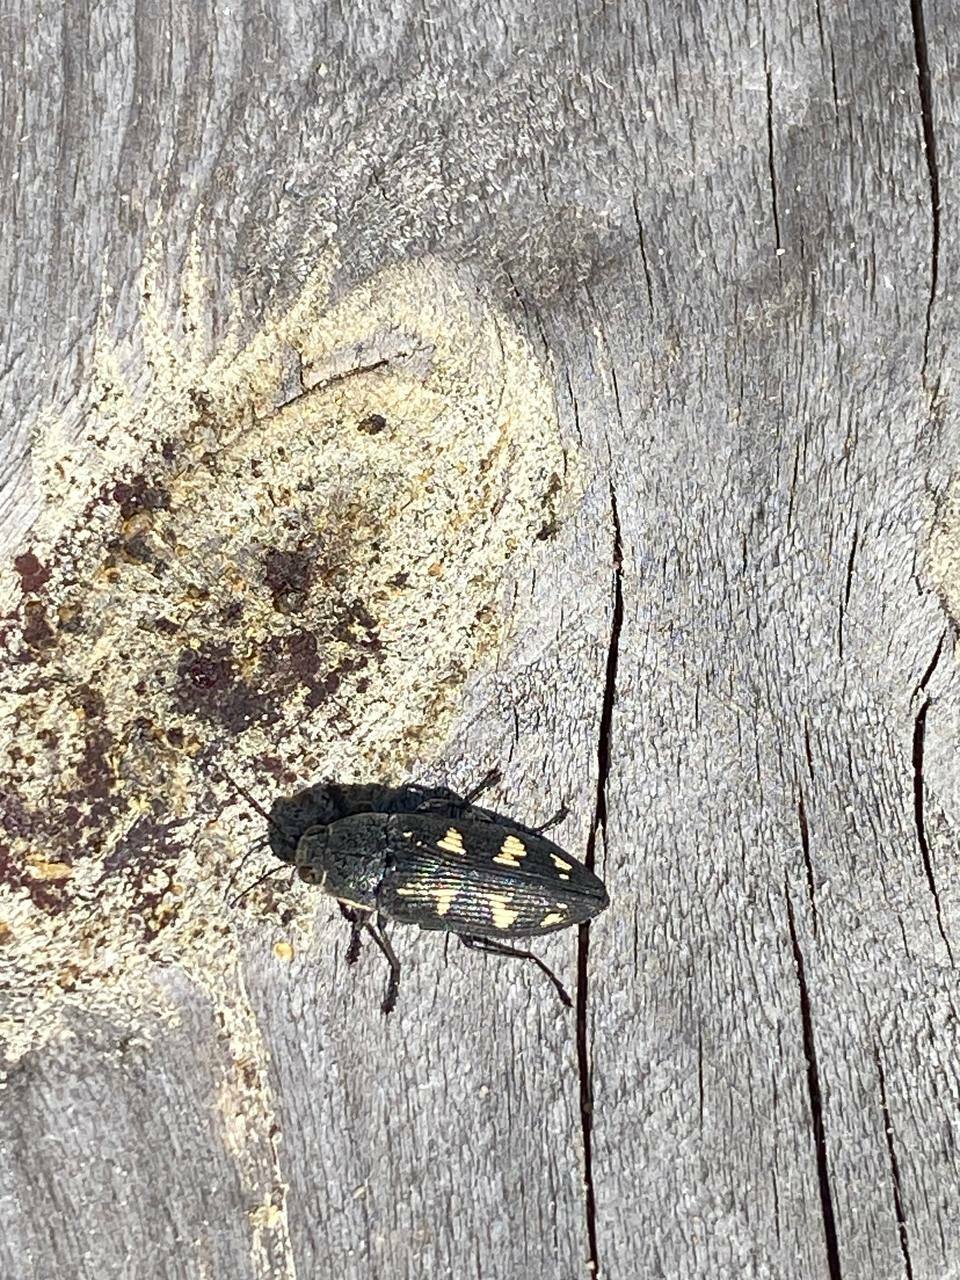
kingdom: Animalia
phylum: Arthropoda
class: Insecta
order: Coleoptera
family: Buprestidae
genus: Buprestis
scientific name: Buprestis novemmaculata
